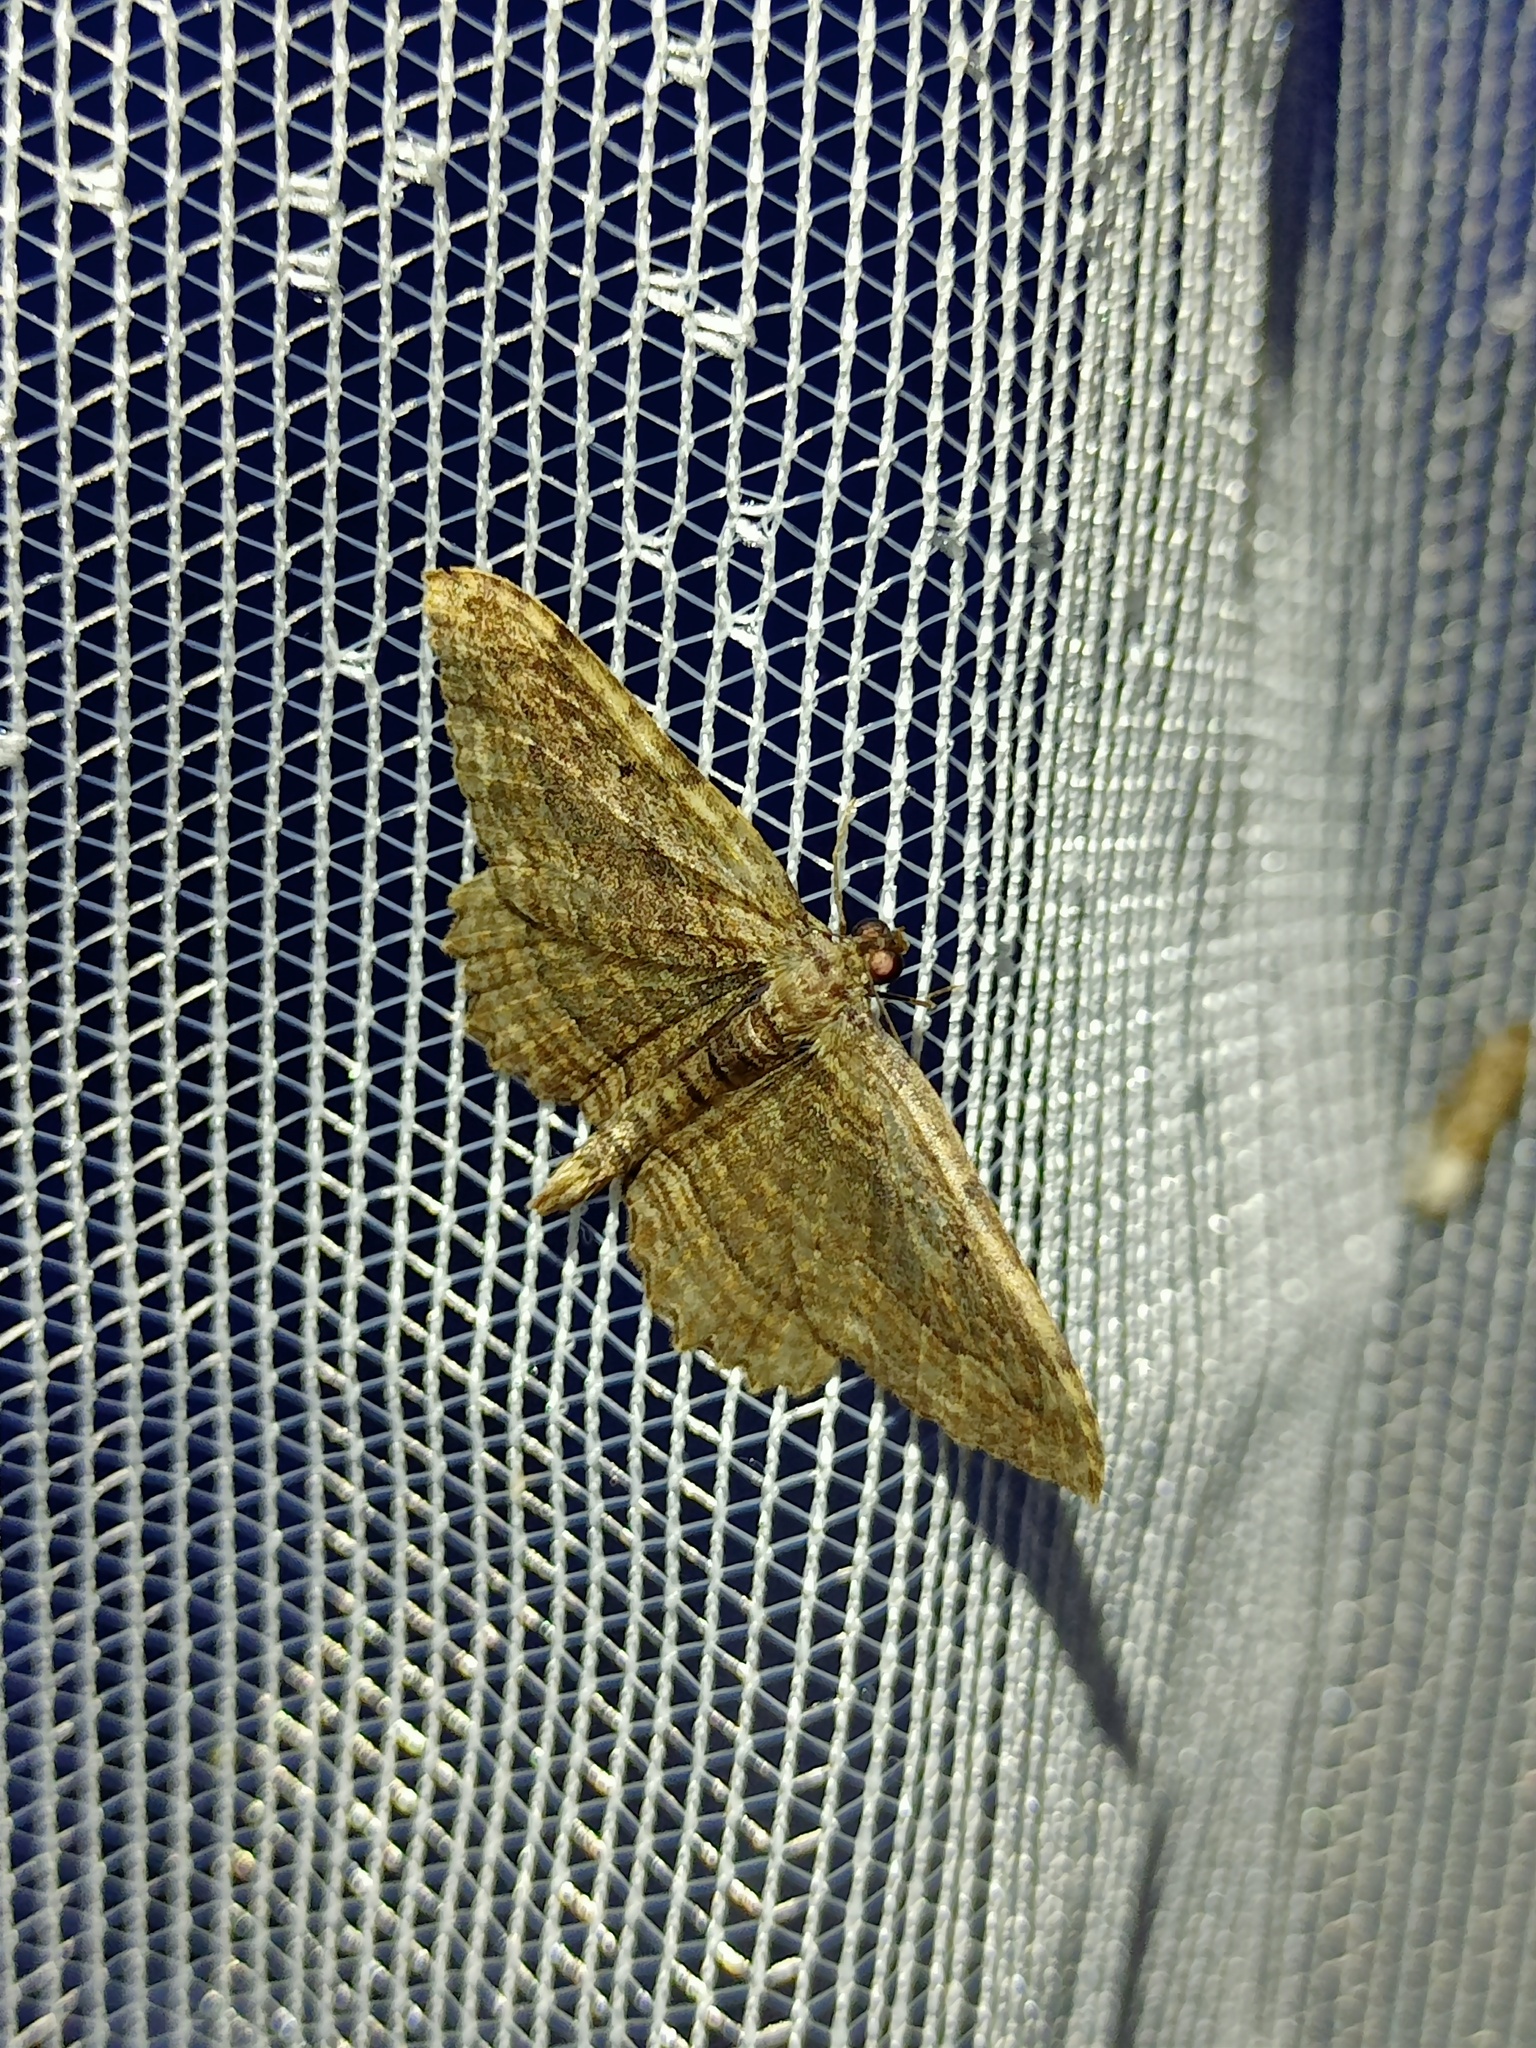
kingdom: Animalia
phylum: Arthropoda
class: Insecta
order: Lepidoptera
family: Geometridae
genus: Philereme
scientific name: Philereme transversata
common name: Dark umber
